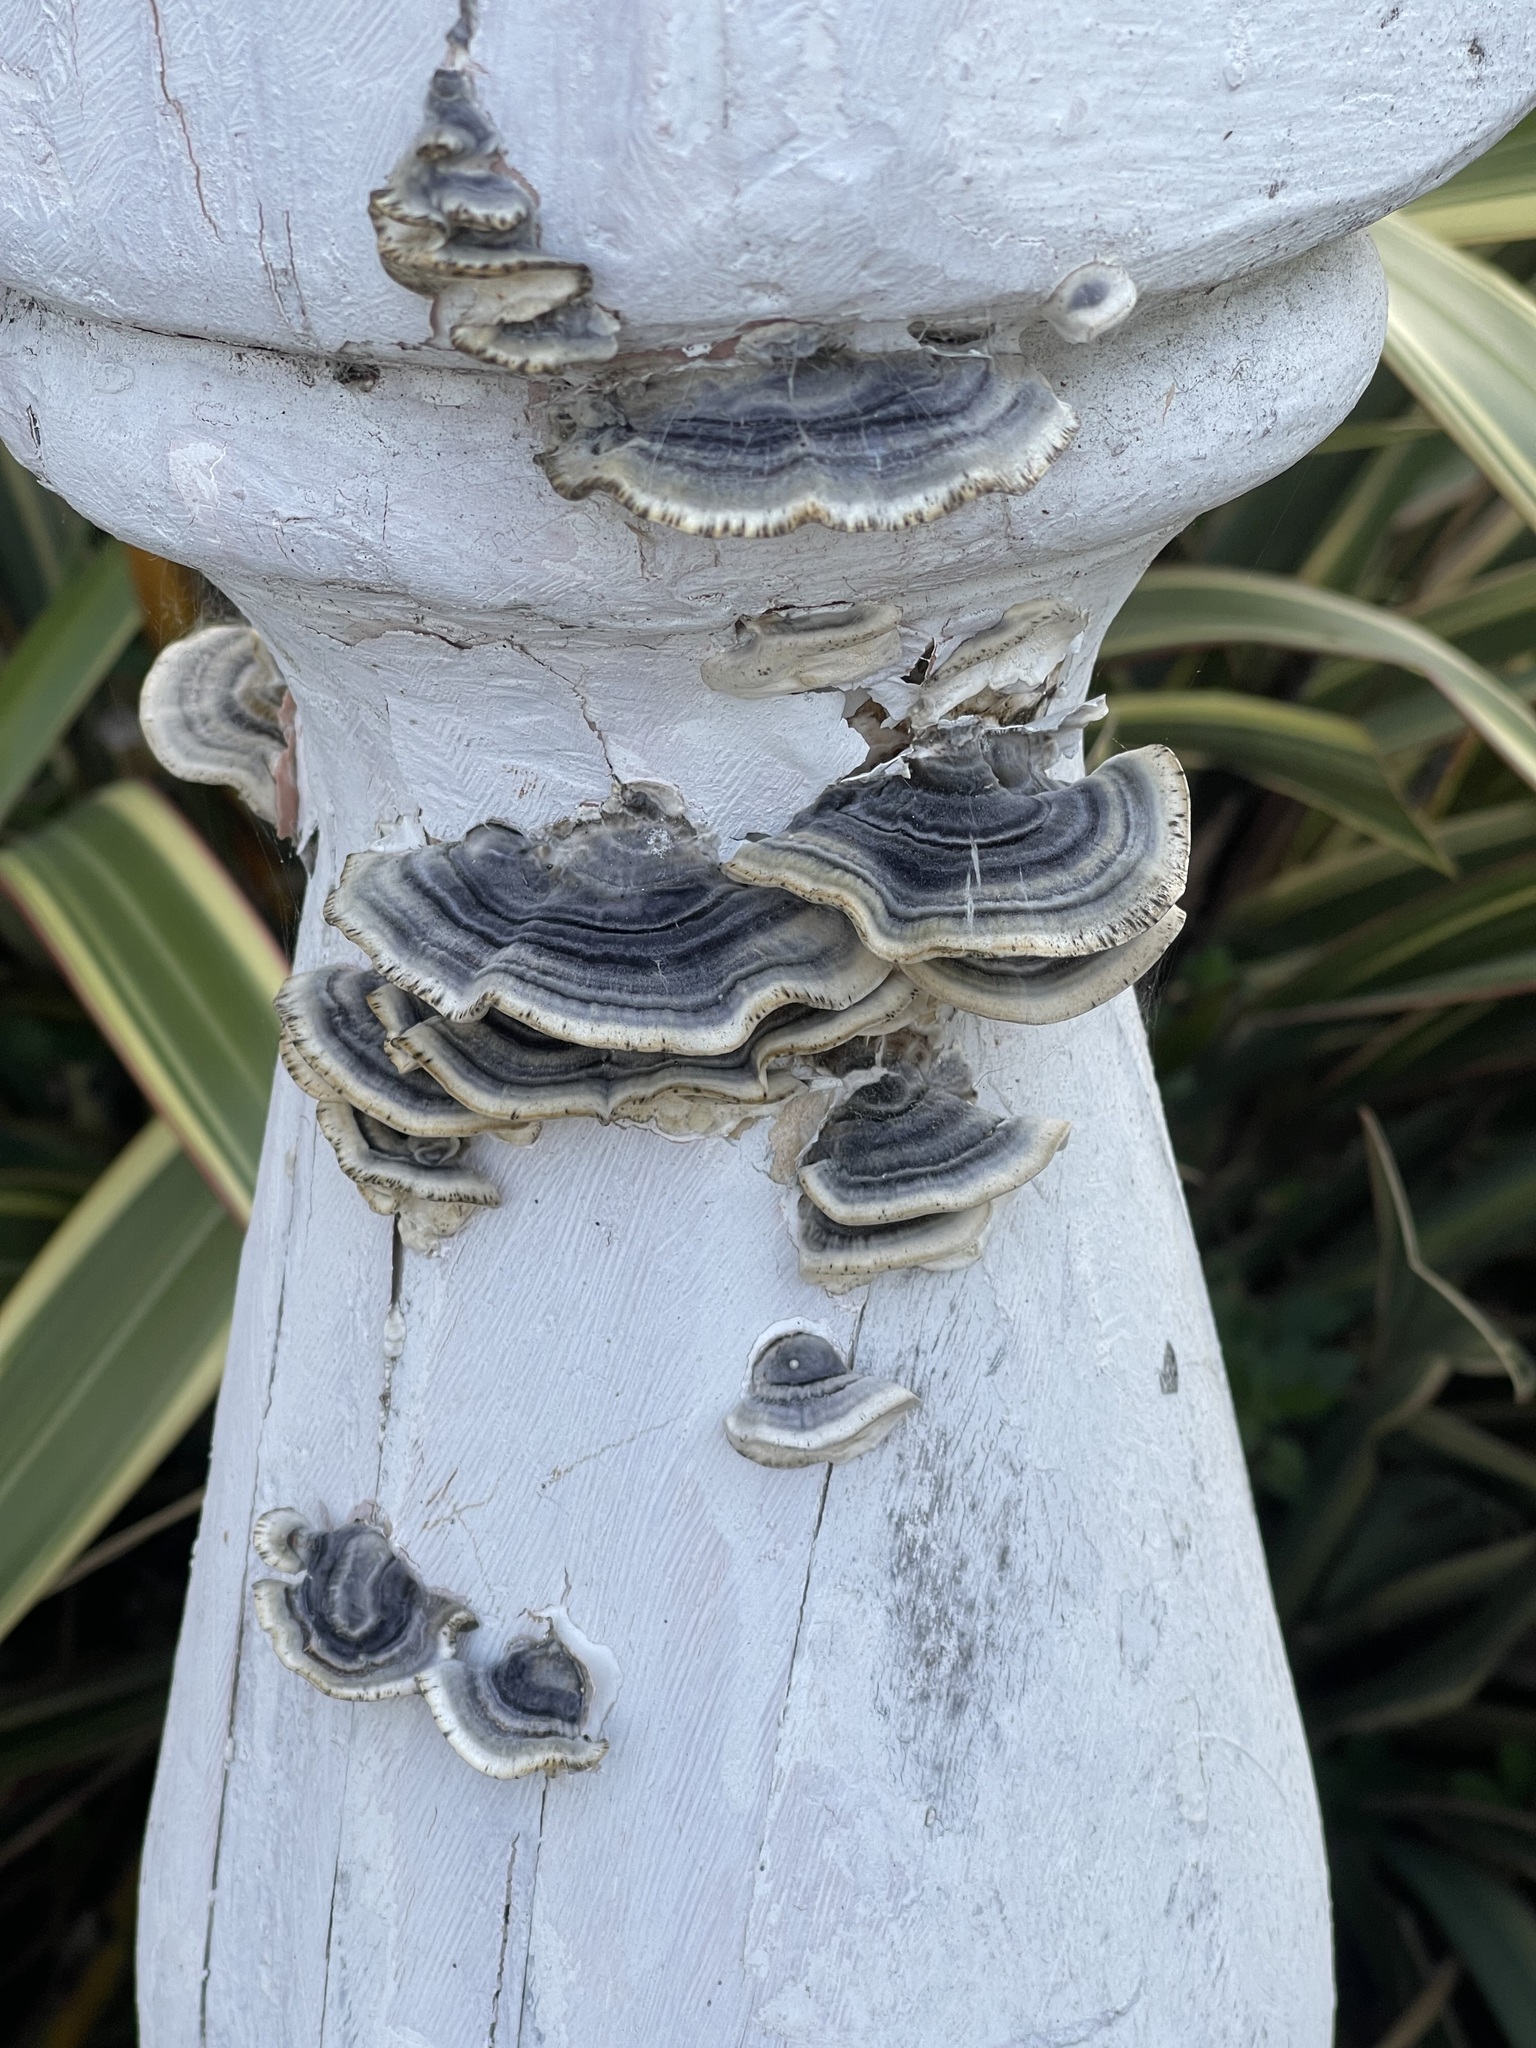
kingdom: Fungi
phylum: Basidiomycota
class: Agaricomycetes
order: Polyporales
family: Polyporaceae
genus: Trametes
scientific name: Trametes versicolor
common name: Turkeytail
